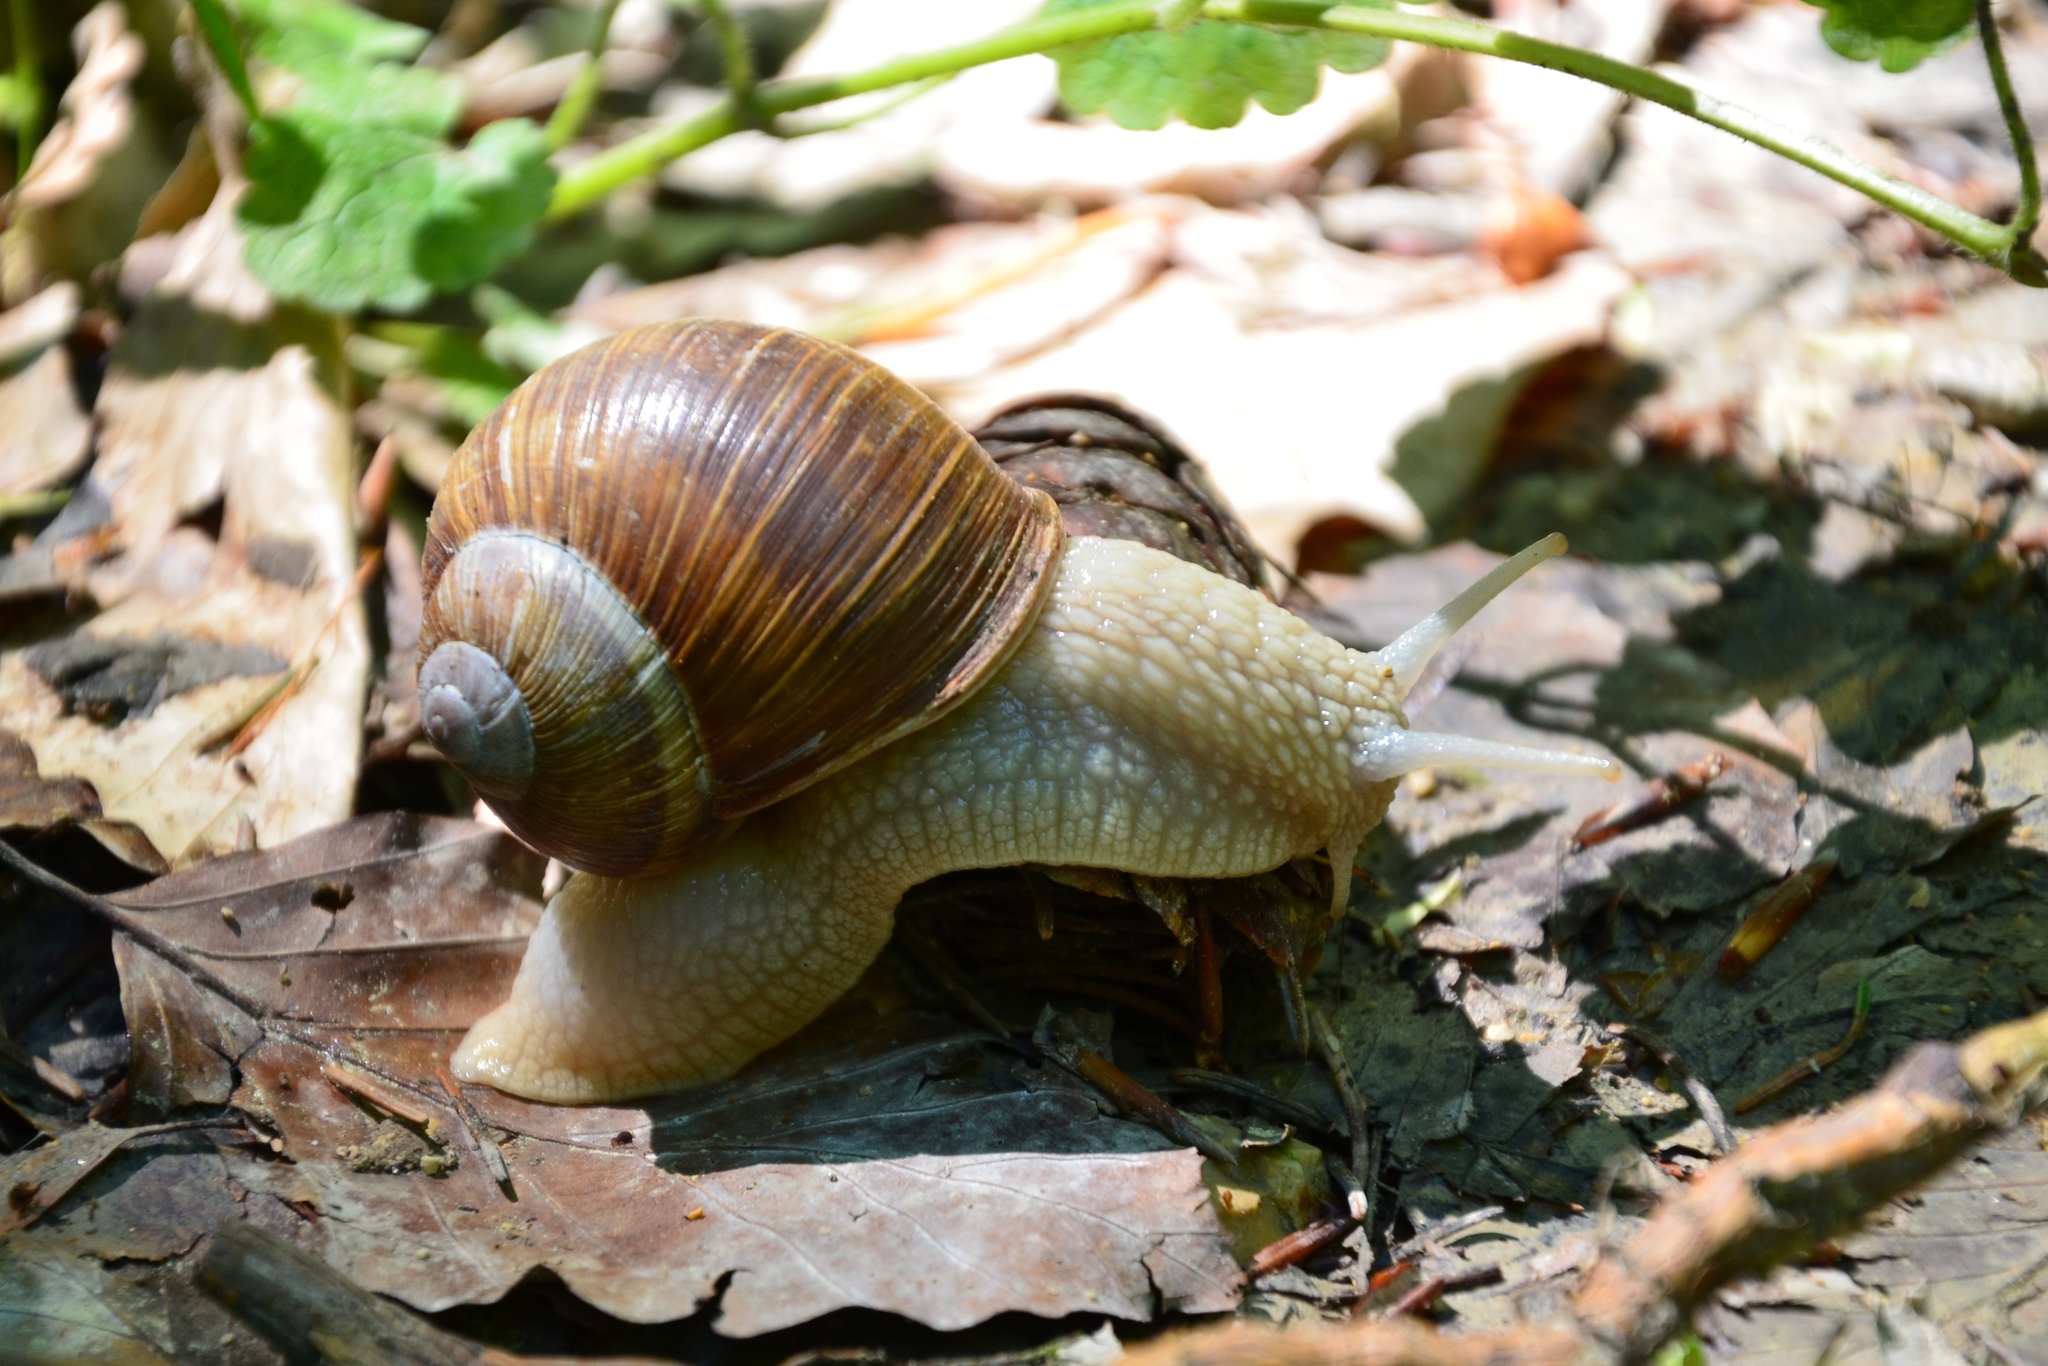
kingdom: Animalia
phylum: Mollusca
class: Gastropoda
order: Stylommatophora
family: Helicidae
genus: Helix
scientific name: Helix pomatia
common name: Roman snail
